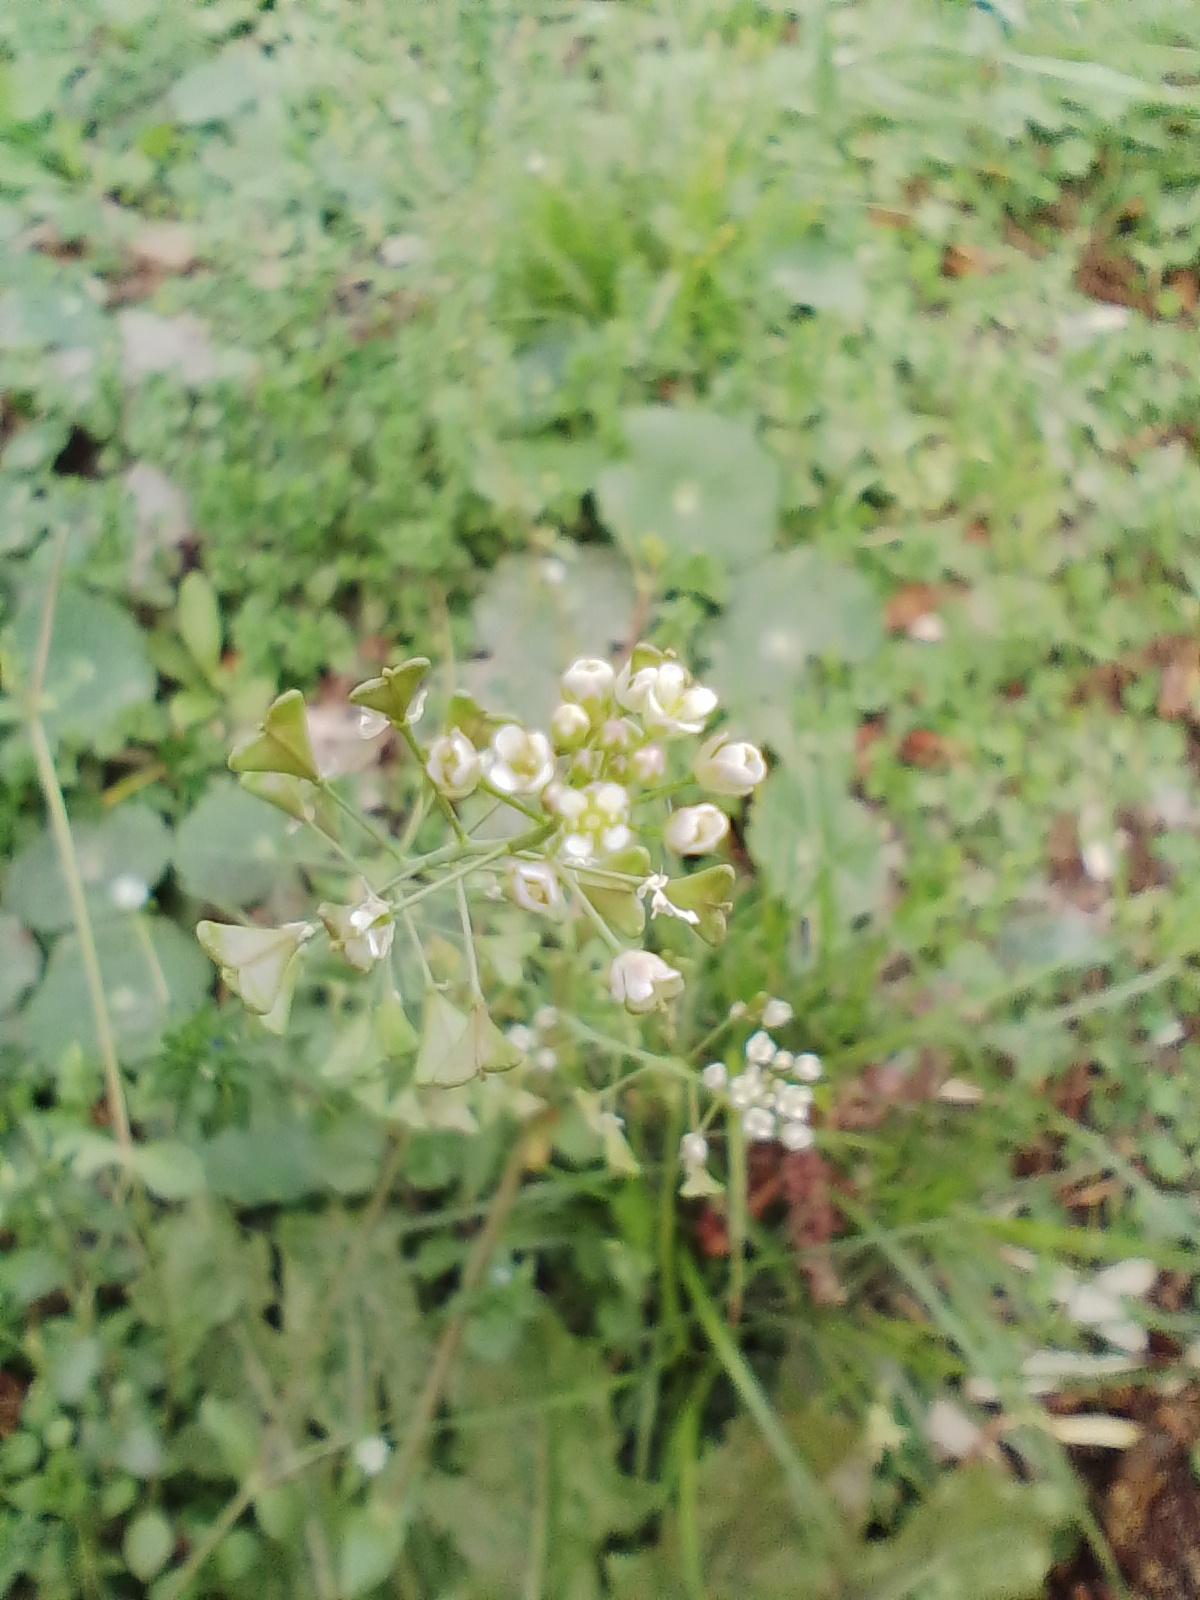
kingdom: Plantae
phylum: Tracheophyta
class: Magnoliopsida
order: Brassicales
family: Brassicaceae
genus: Capsella
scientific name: Capsella bursa-pastoris
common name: Shepherd's purse
